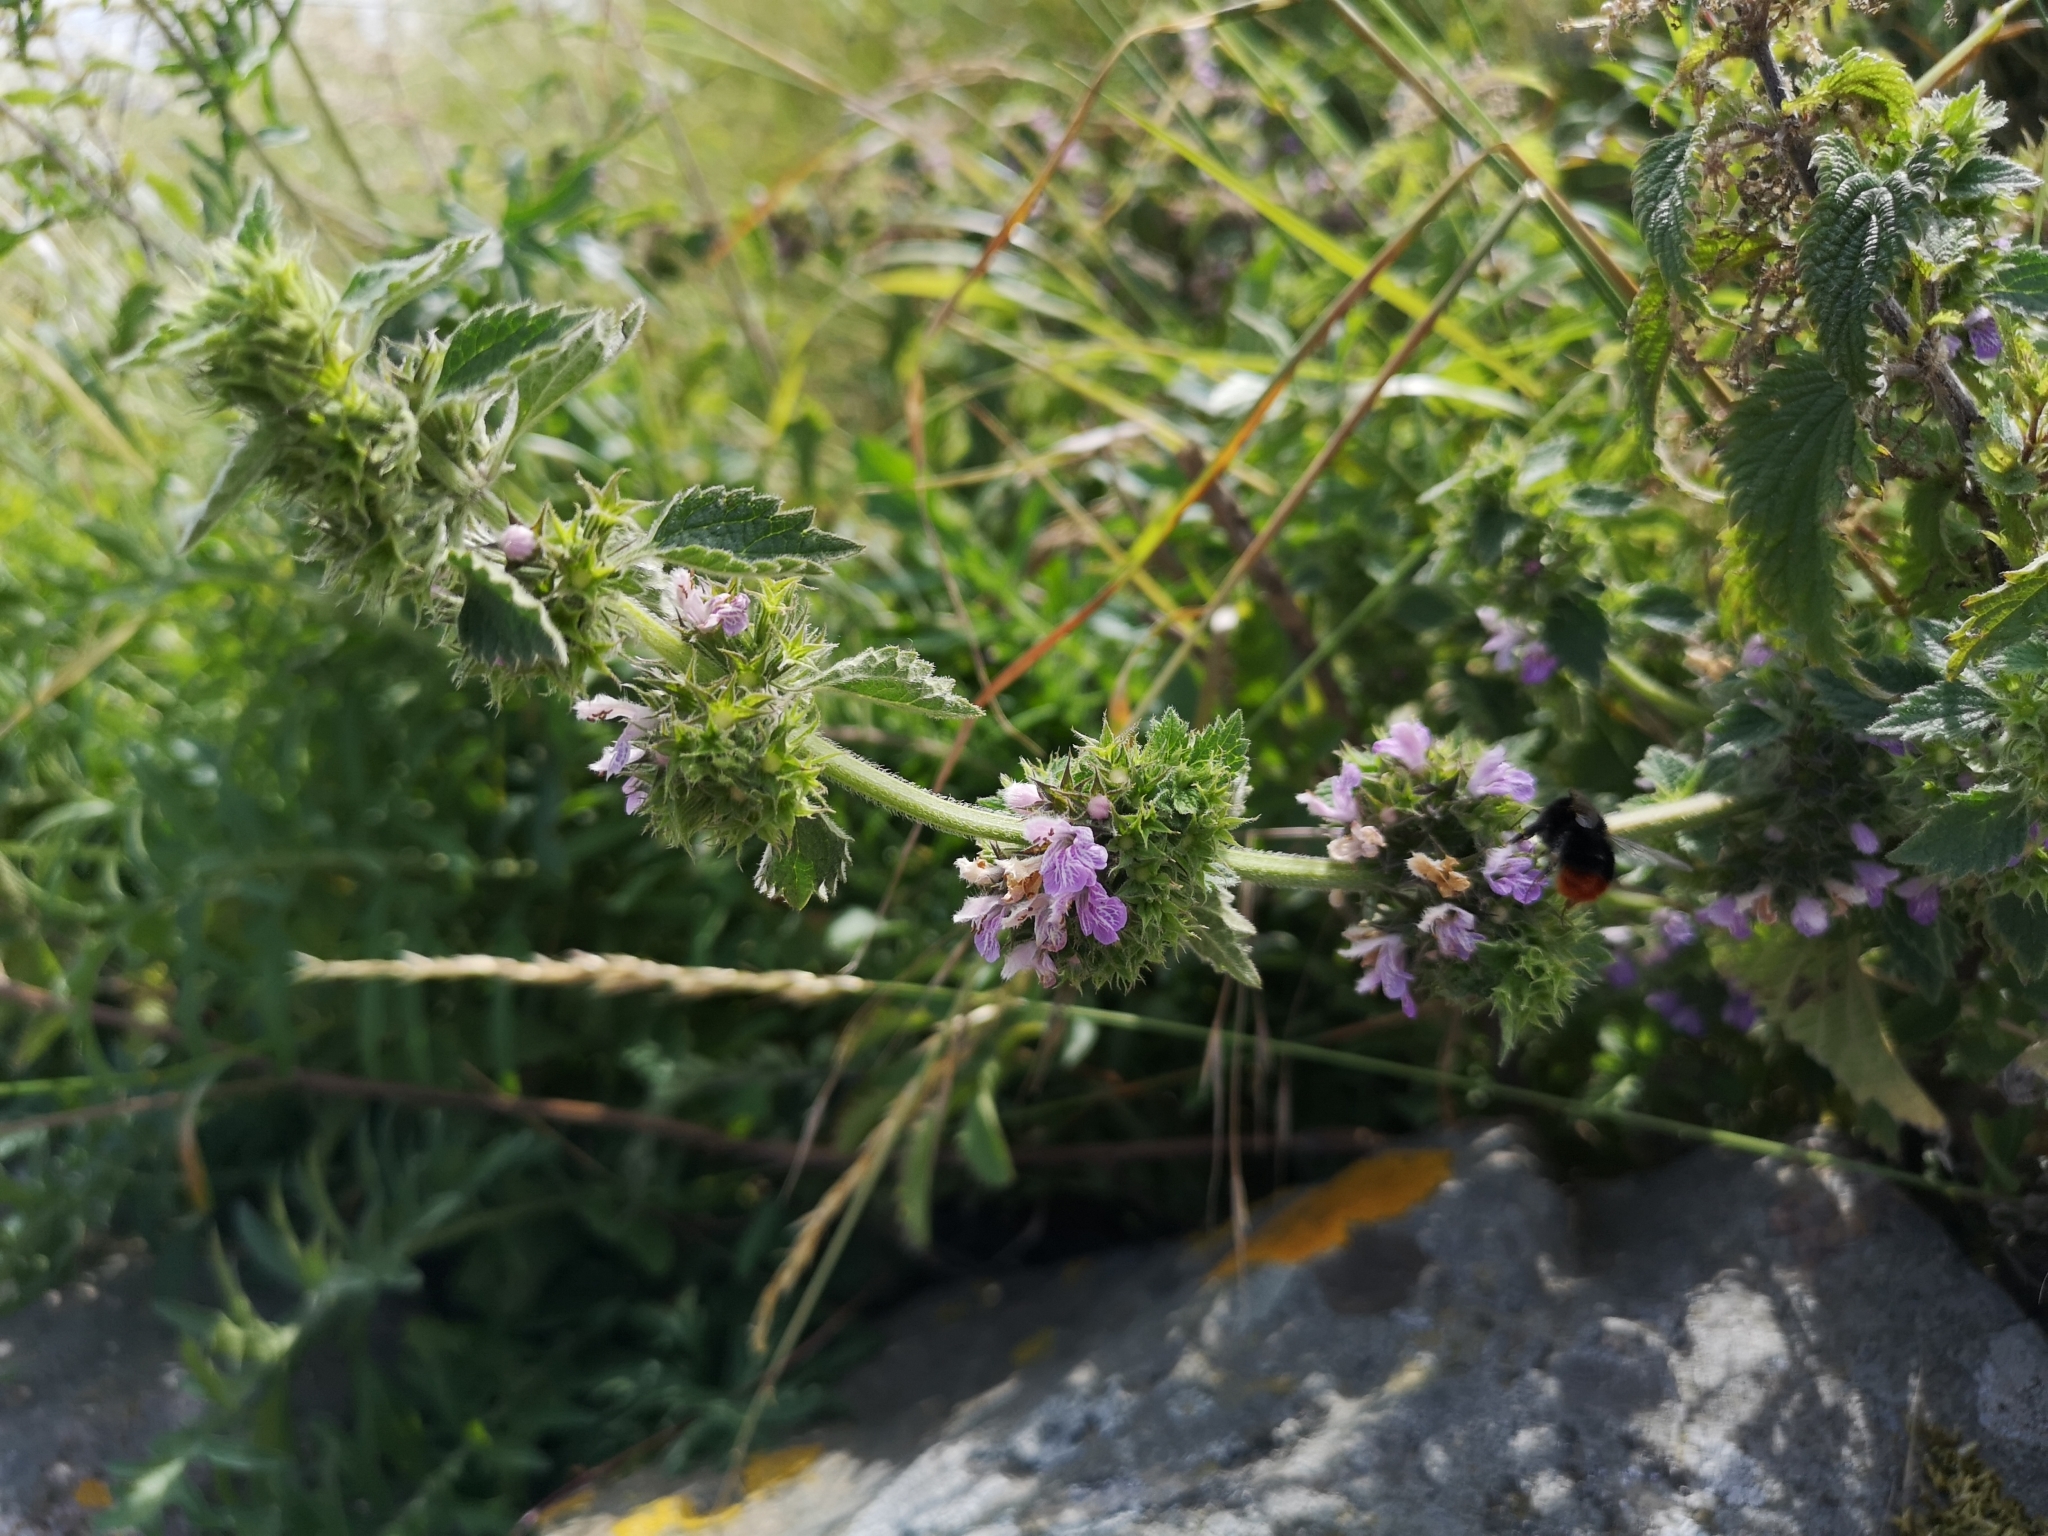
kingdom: Plantae
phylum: Tracheophyta
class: Magnoliopsida
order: Lamiales
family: Lamiaceae
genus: Ballota
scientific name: Ballota nigra
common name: Black horehound
